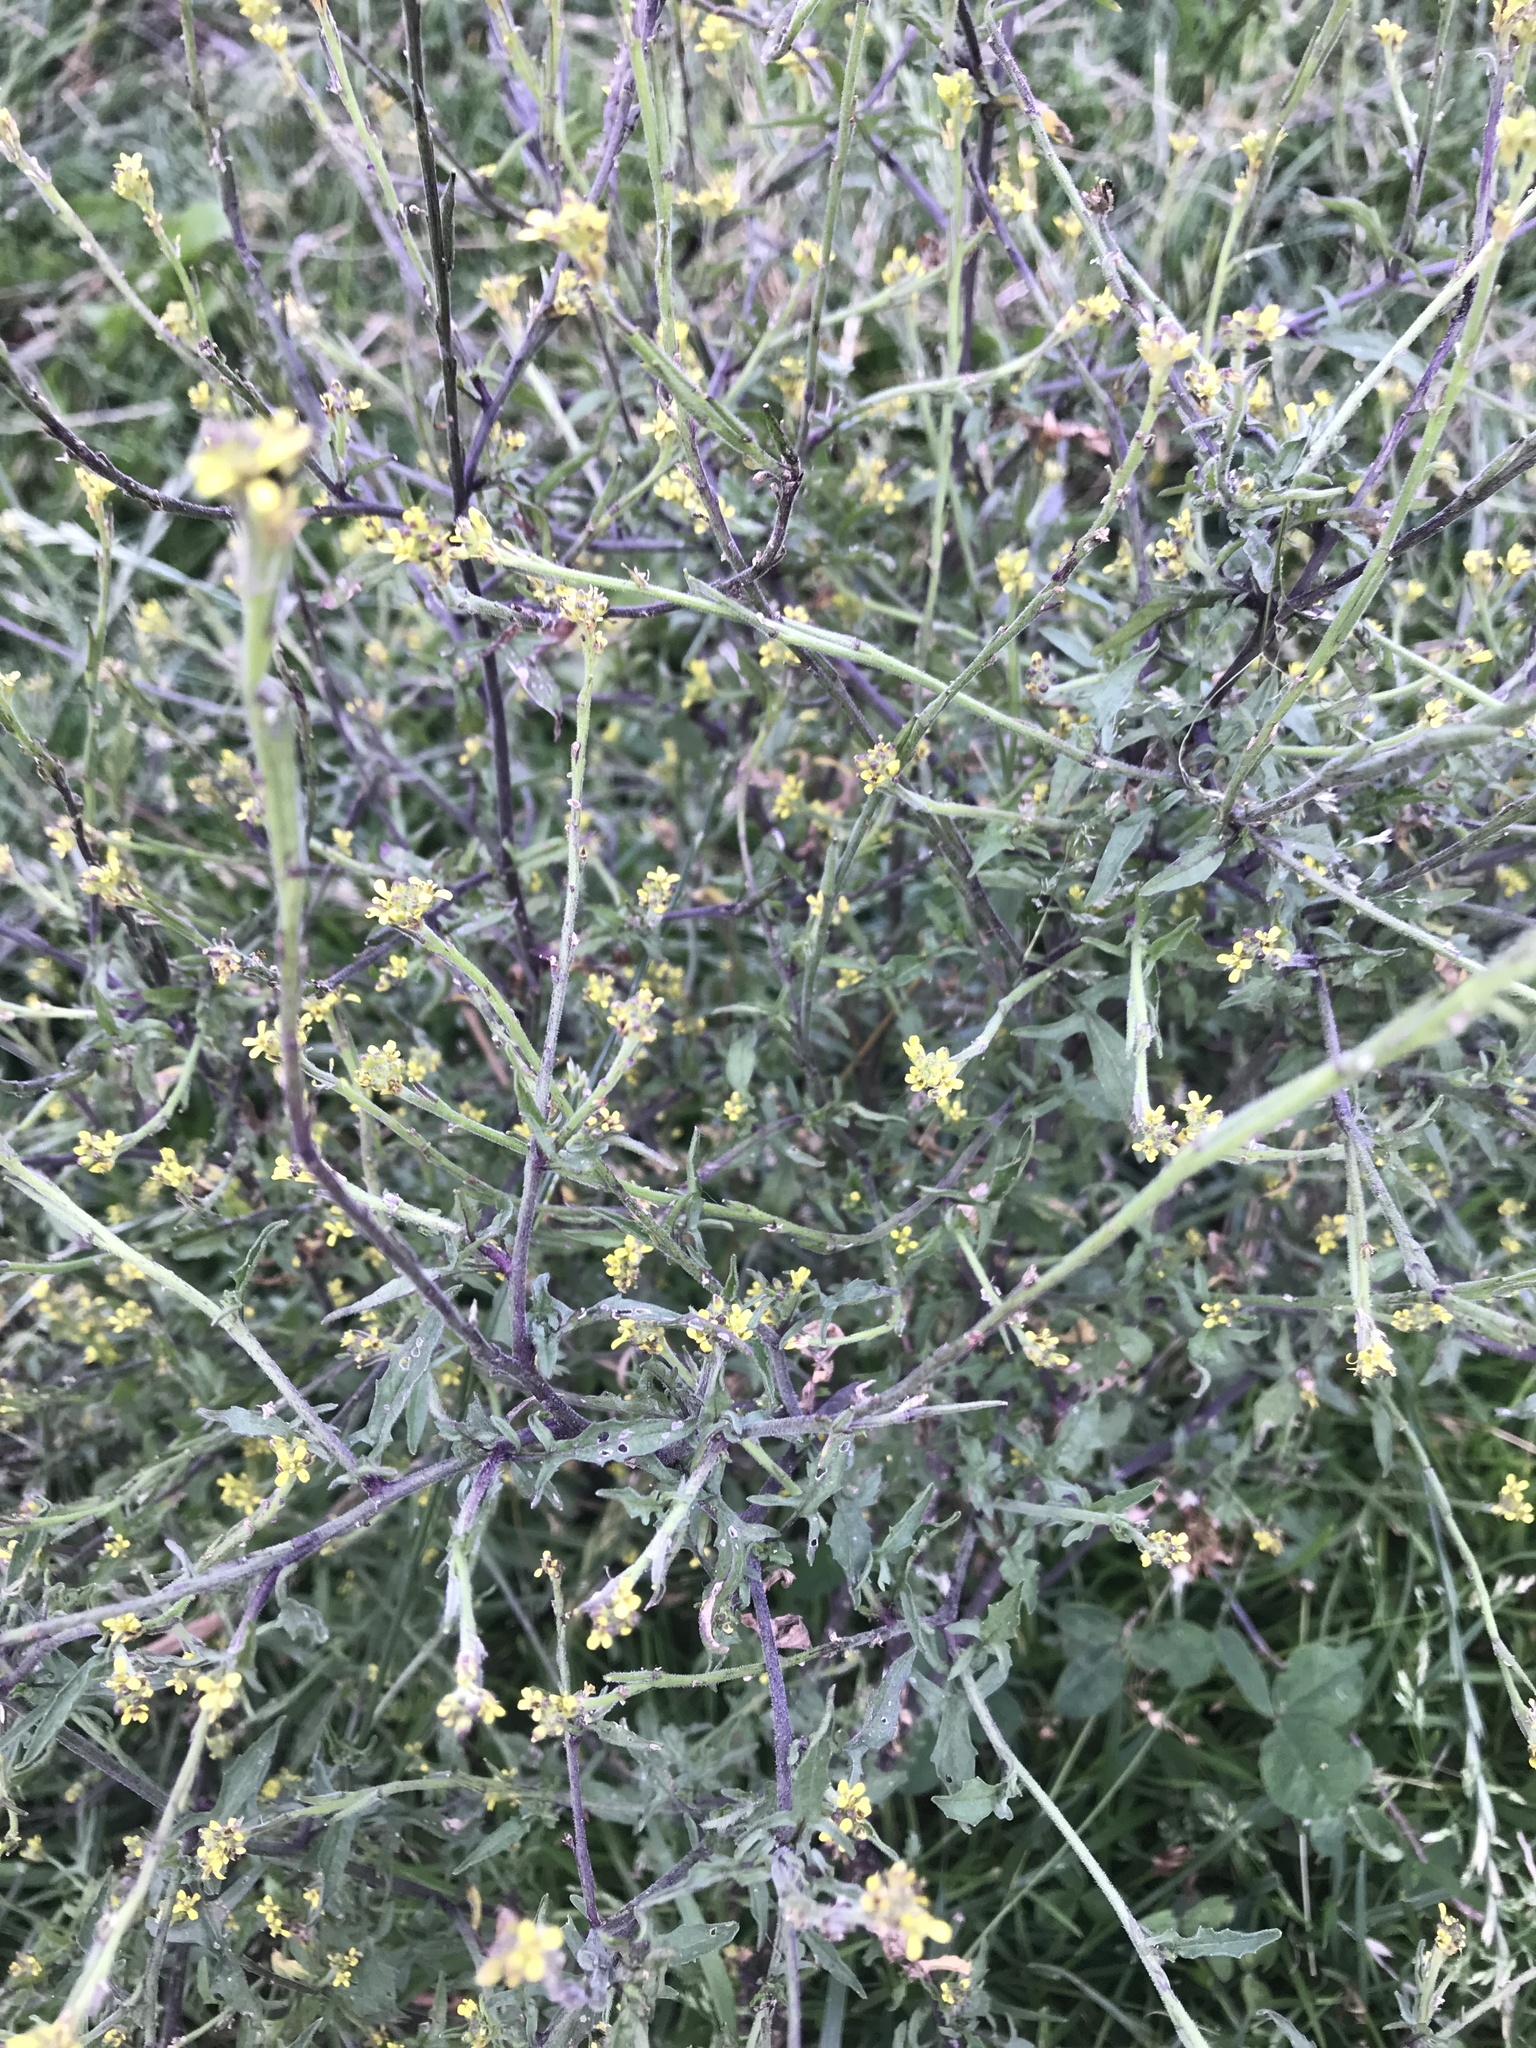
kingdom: Plantae
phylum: Tracheophyta
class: Magnoliopsida
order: Brassicales
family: Brassicaceae
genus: Sisymbrium
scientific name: Sisymbrium officinale
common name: Hedge mustard
